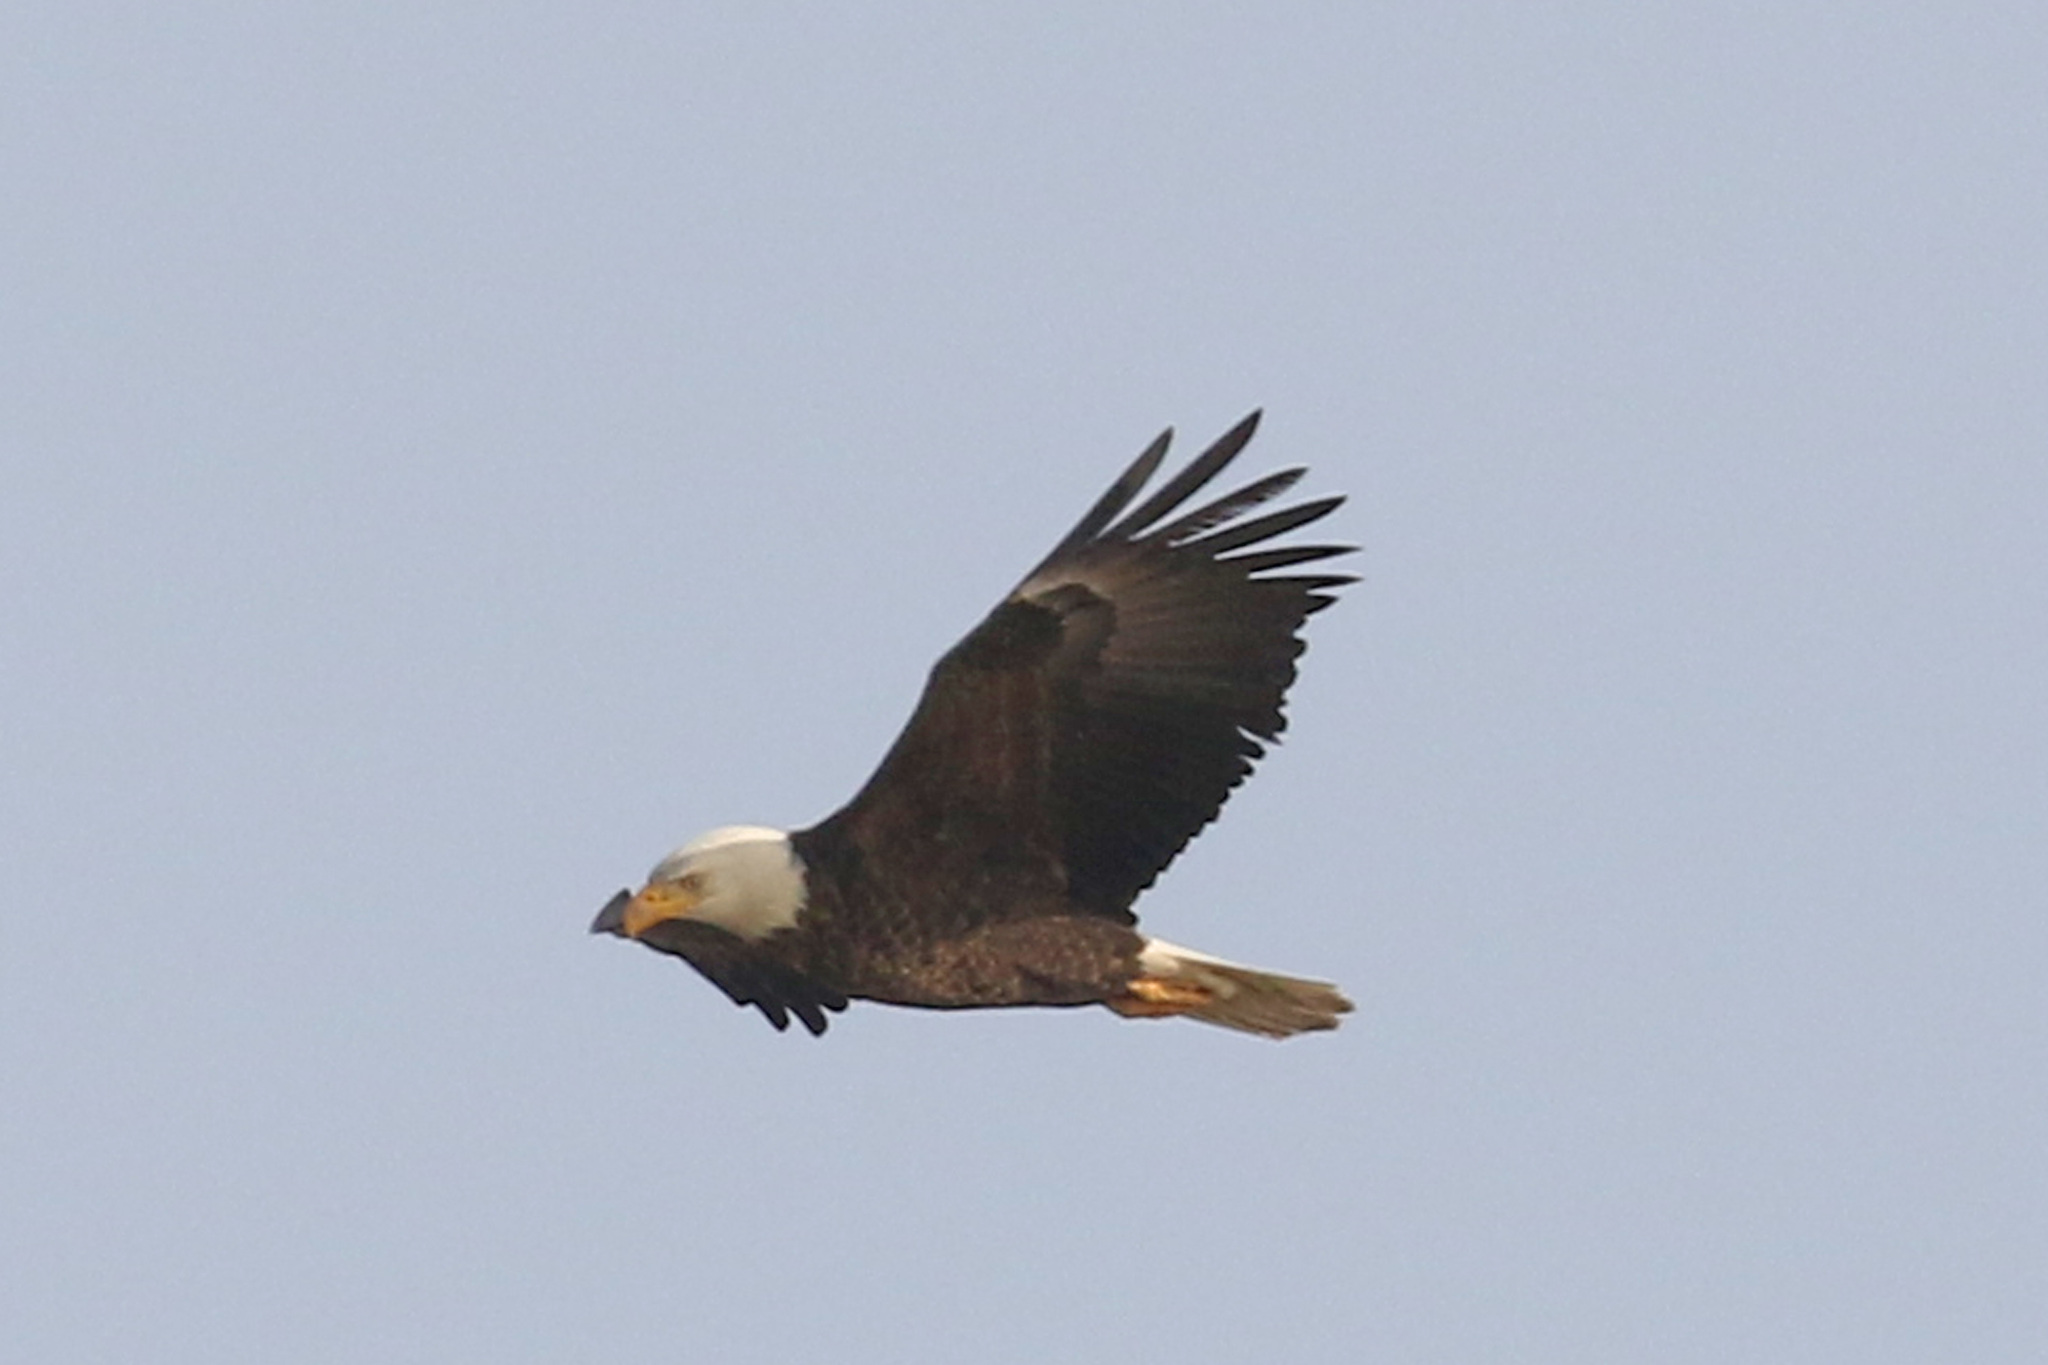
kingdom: Animalia
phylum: Chordata
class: Aves
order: Accipitriformes
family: Accipitridae
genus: Haliaeetus
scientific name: Haliaeetus leucocephalus
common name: Bald eagle
